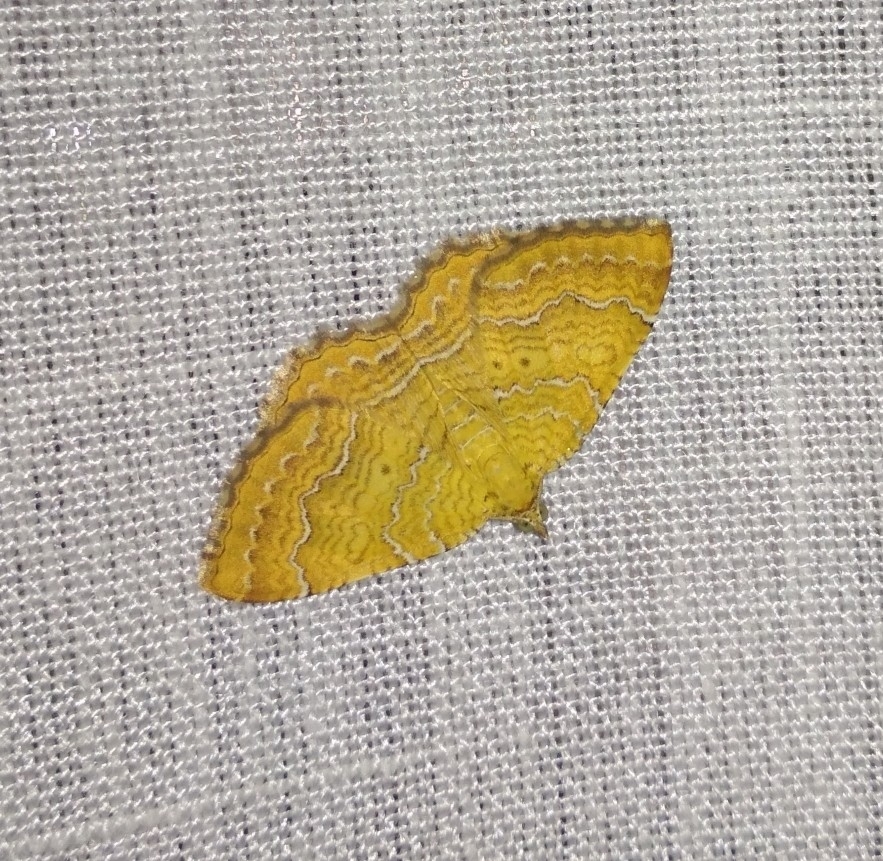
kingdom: Animalia
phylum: Arthropoda
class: Insecta
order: Lepidoptera
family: Geometridae
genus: Camptogramma
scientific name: Camptogramma bilineata
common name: Yellow shell
